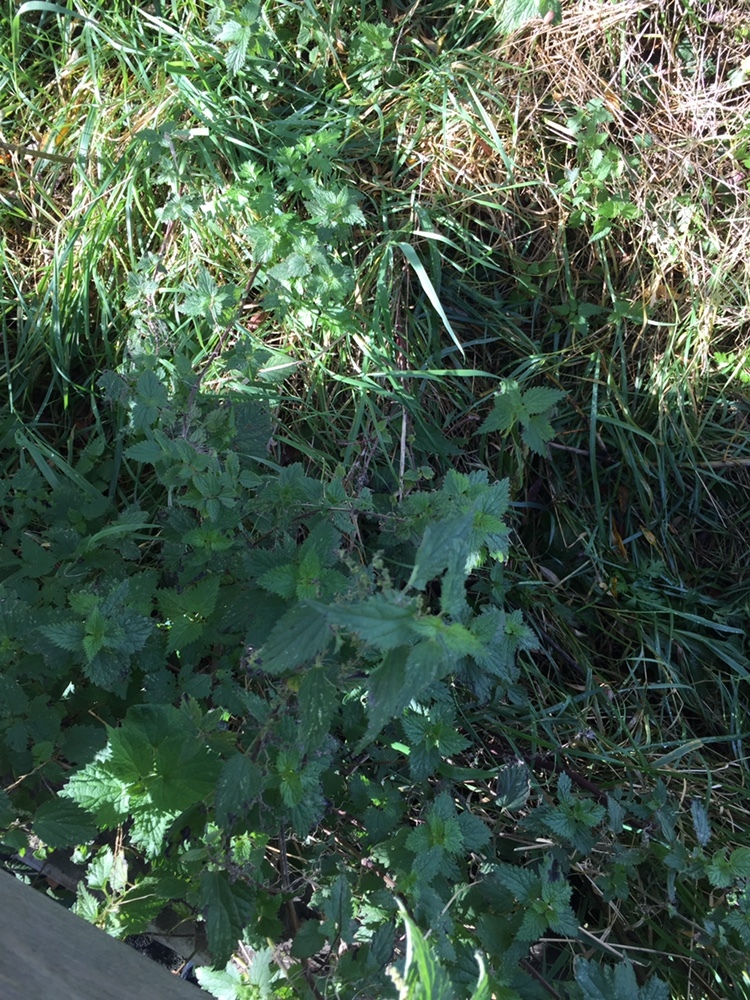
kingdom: Plantae
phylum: Tracheophyta
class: Magnoliopsida
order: Rosales
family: Urticaceae
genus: Urtica
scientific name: Urtica dioica
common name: Common nettle
